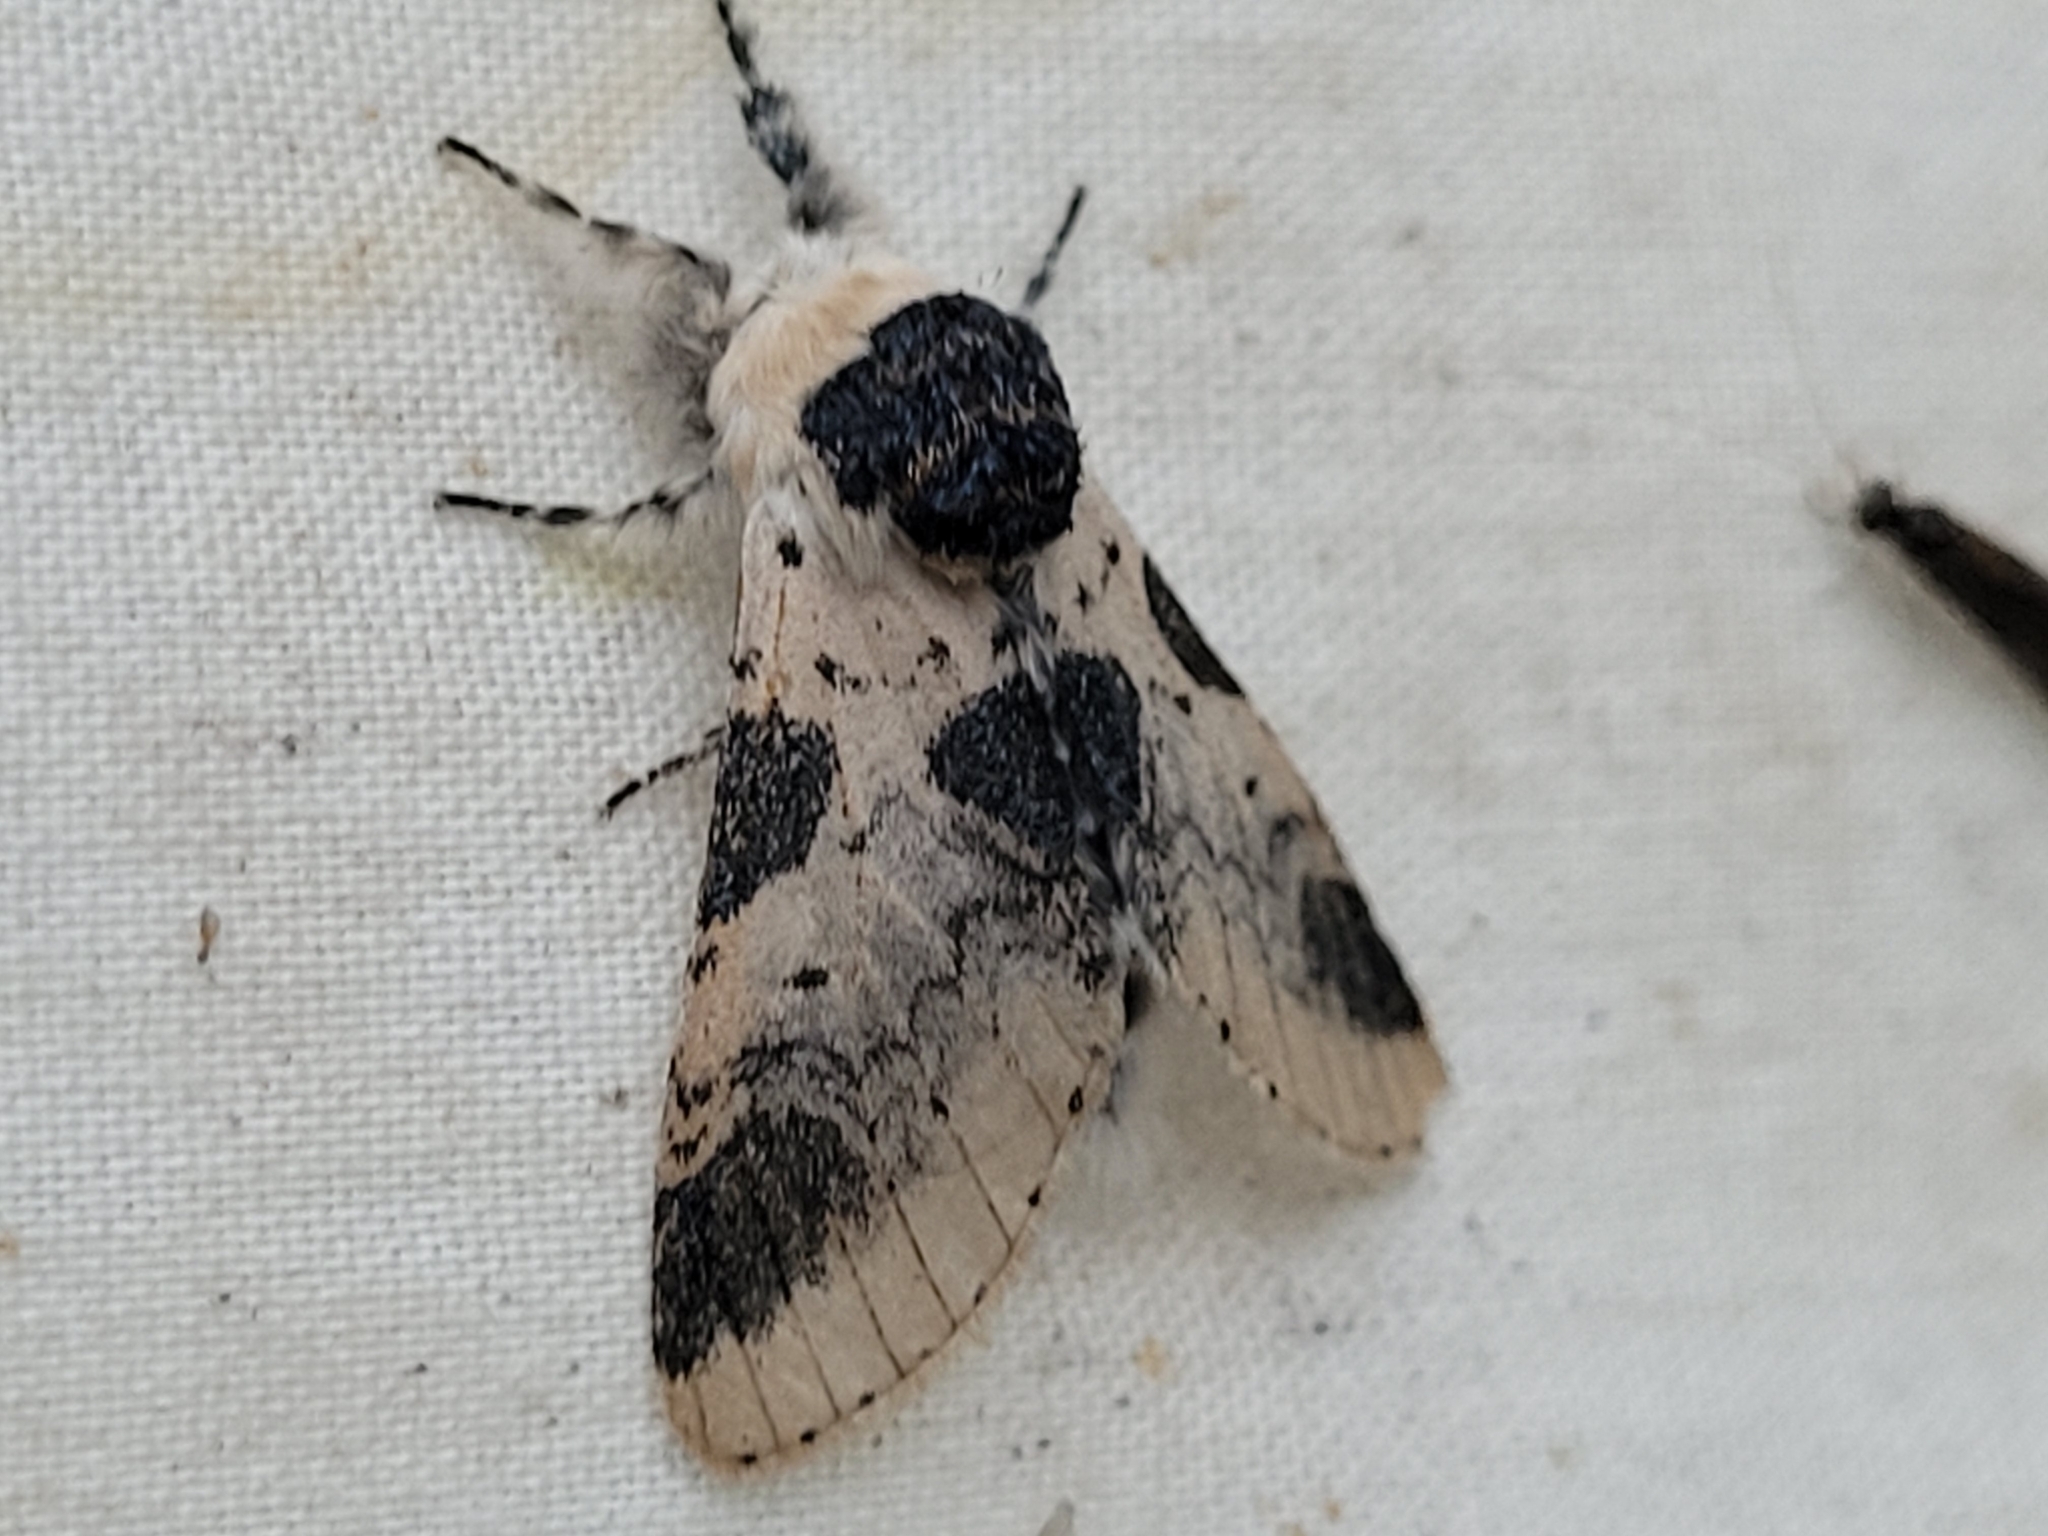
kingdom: Animalia
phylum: Arthropoda
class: Insecta
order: Lepidoptera
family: Notodontidae
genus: Furcula
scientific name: Furcula modesta
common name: Modest furcula moth
